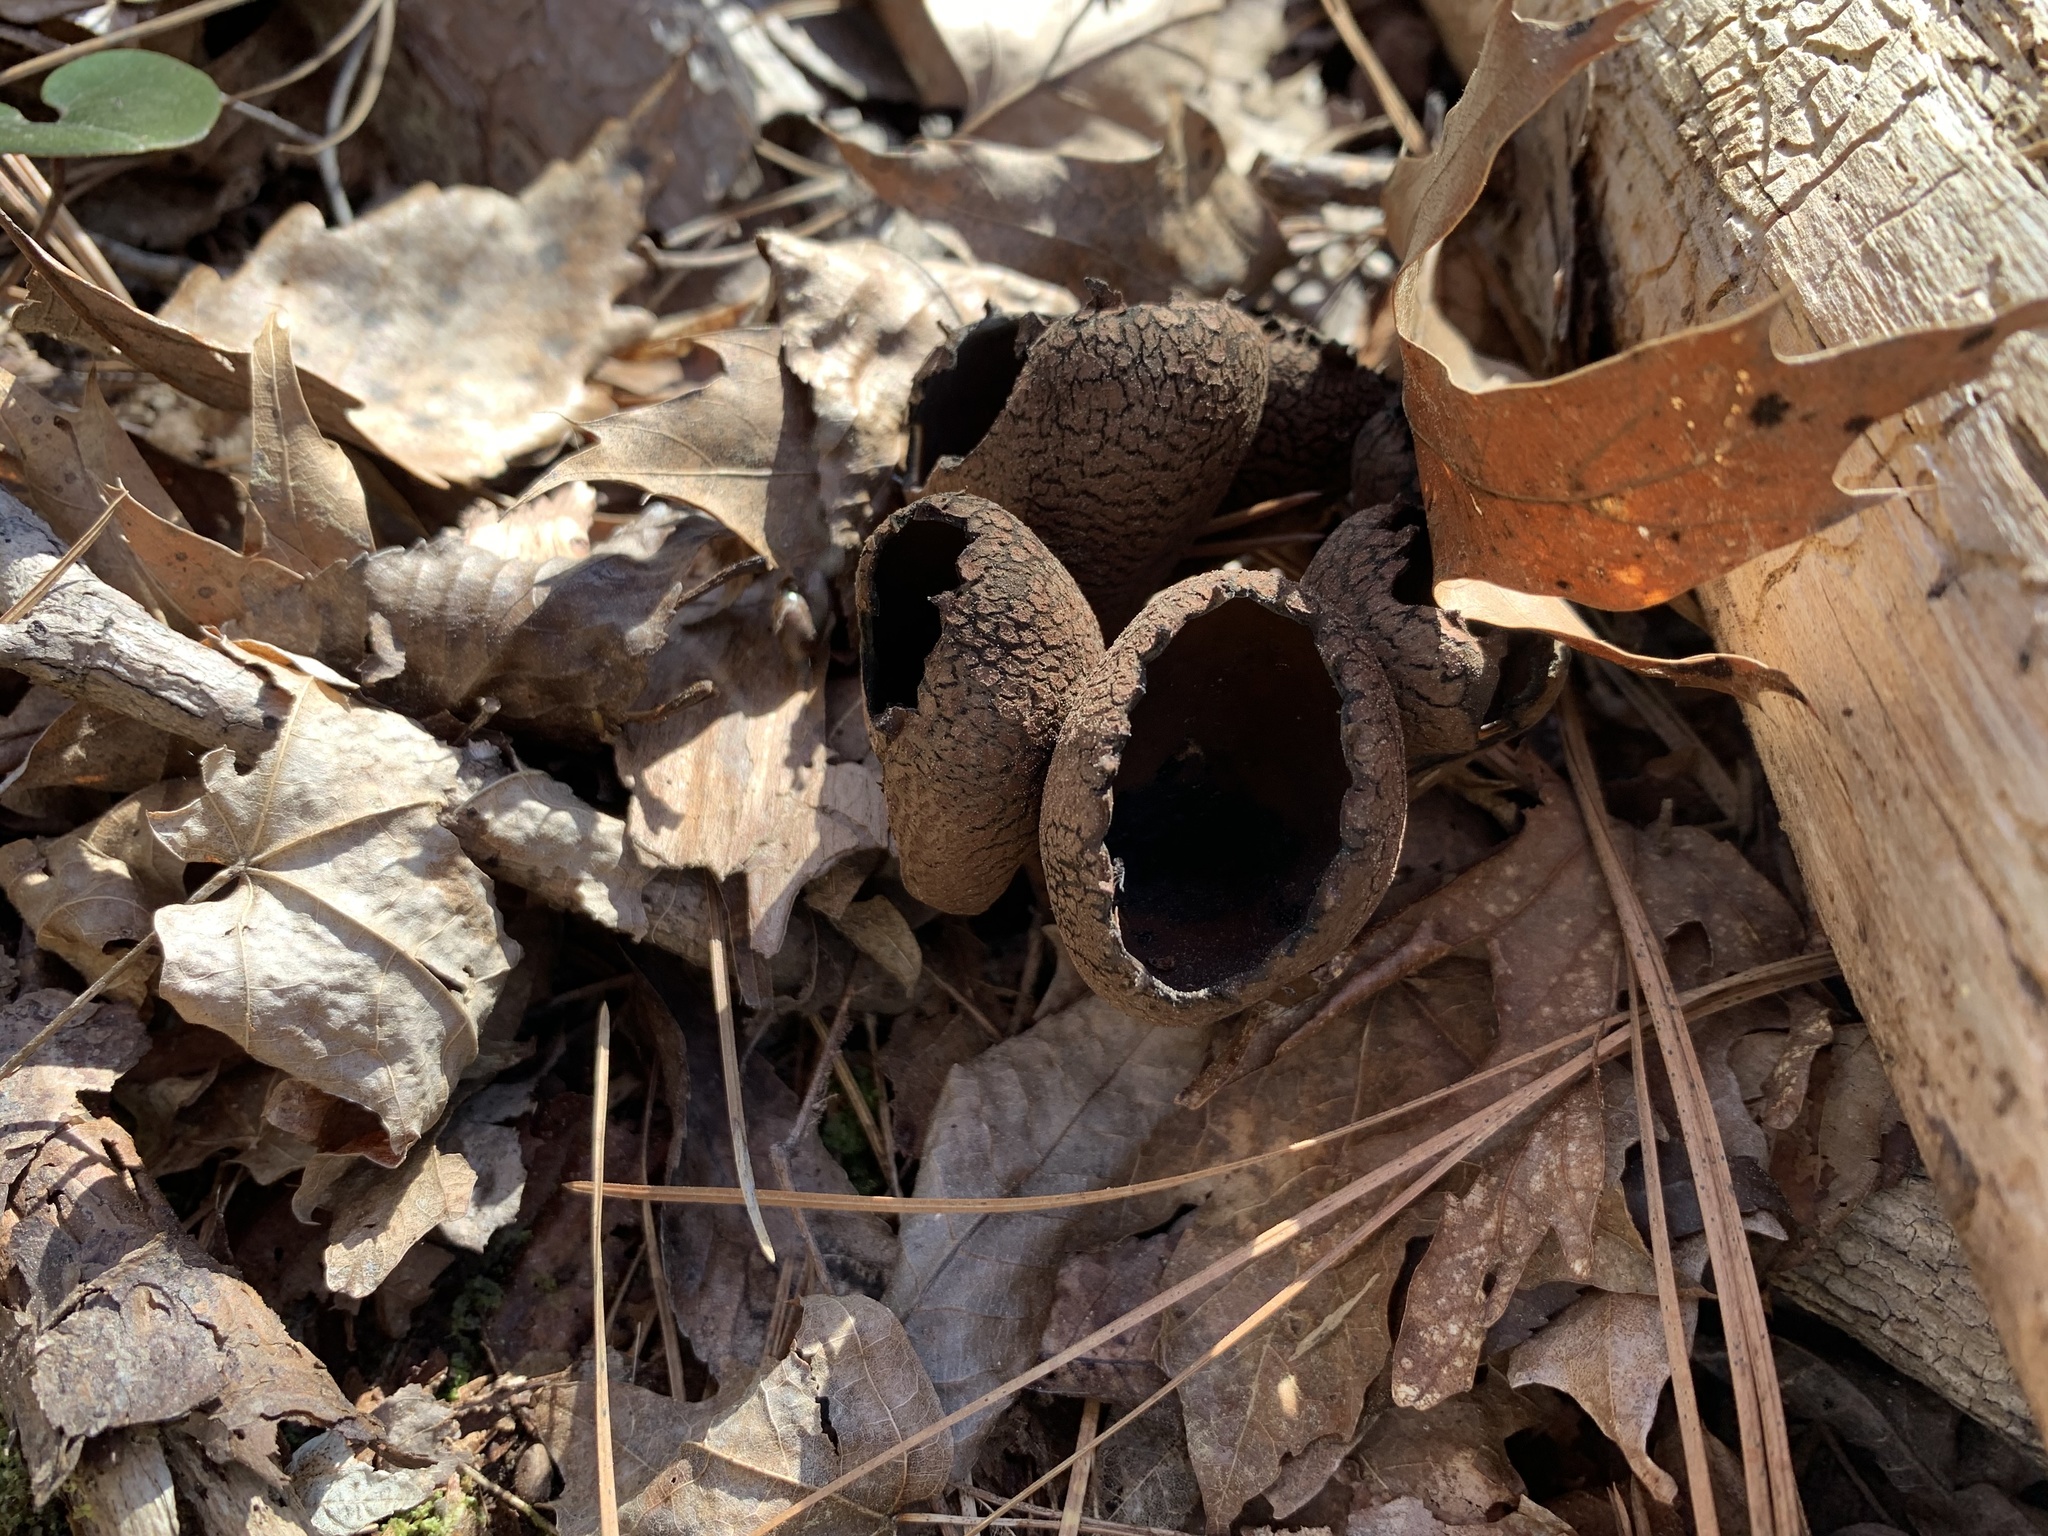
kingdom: Fungi
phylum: Ascomycota
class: Pezizomycetes
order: Pezizales
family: Sarcosomataceae
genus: Urnula
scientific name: Urnula craterium
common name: Devil's urn
